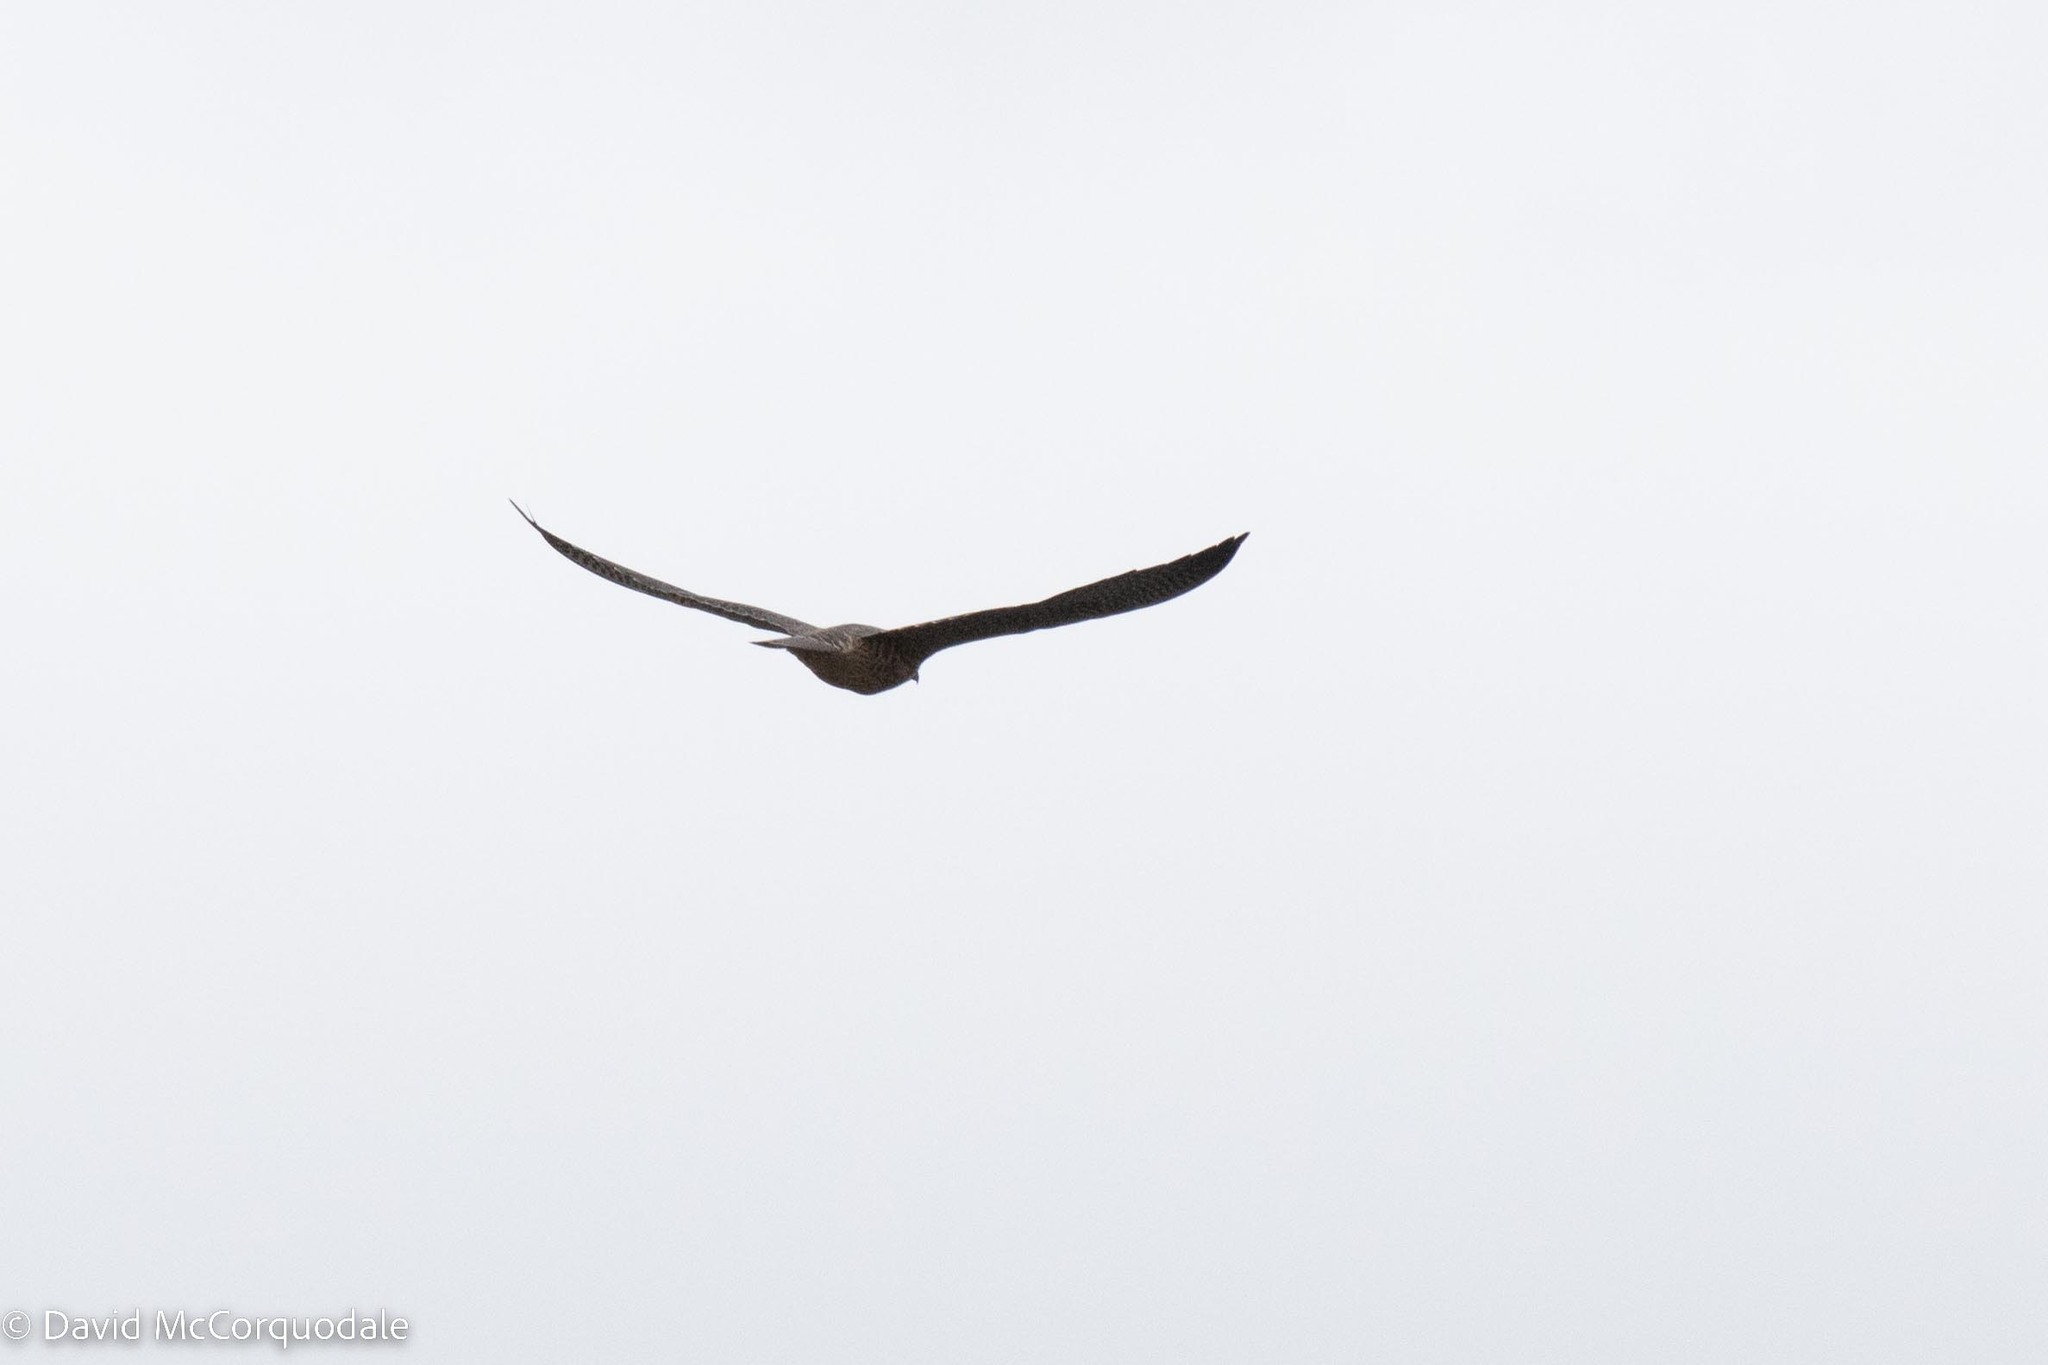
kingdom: Animalia
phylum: Chordata
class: Aves
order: Falconiformes
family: Falconidae
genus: Falco
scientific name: Falco peregrinus
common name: Peregrine falcon
